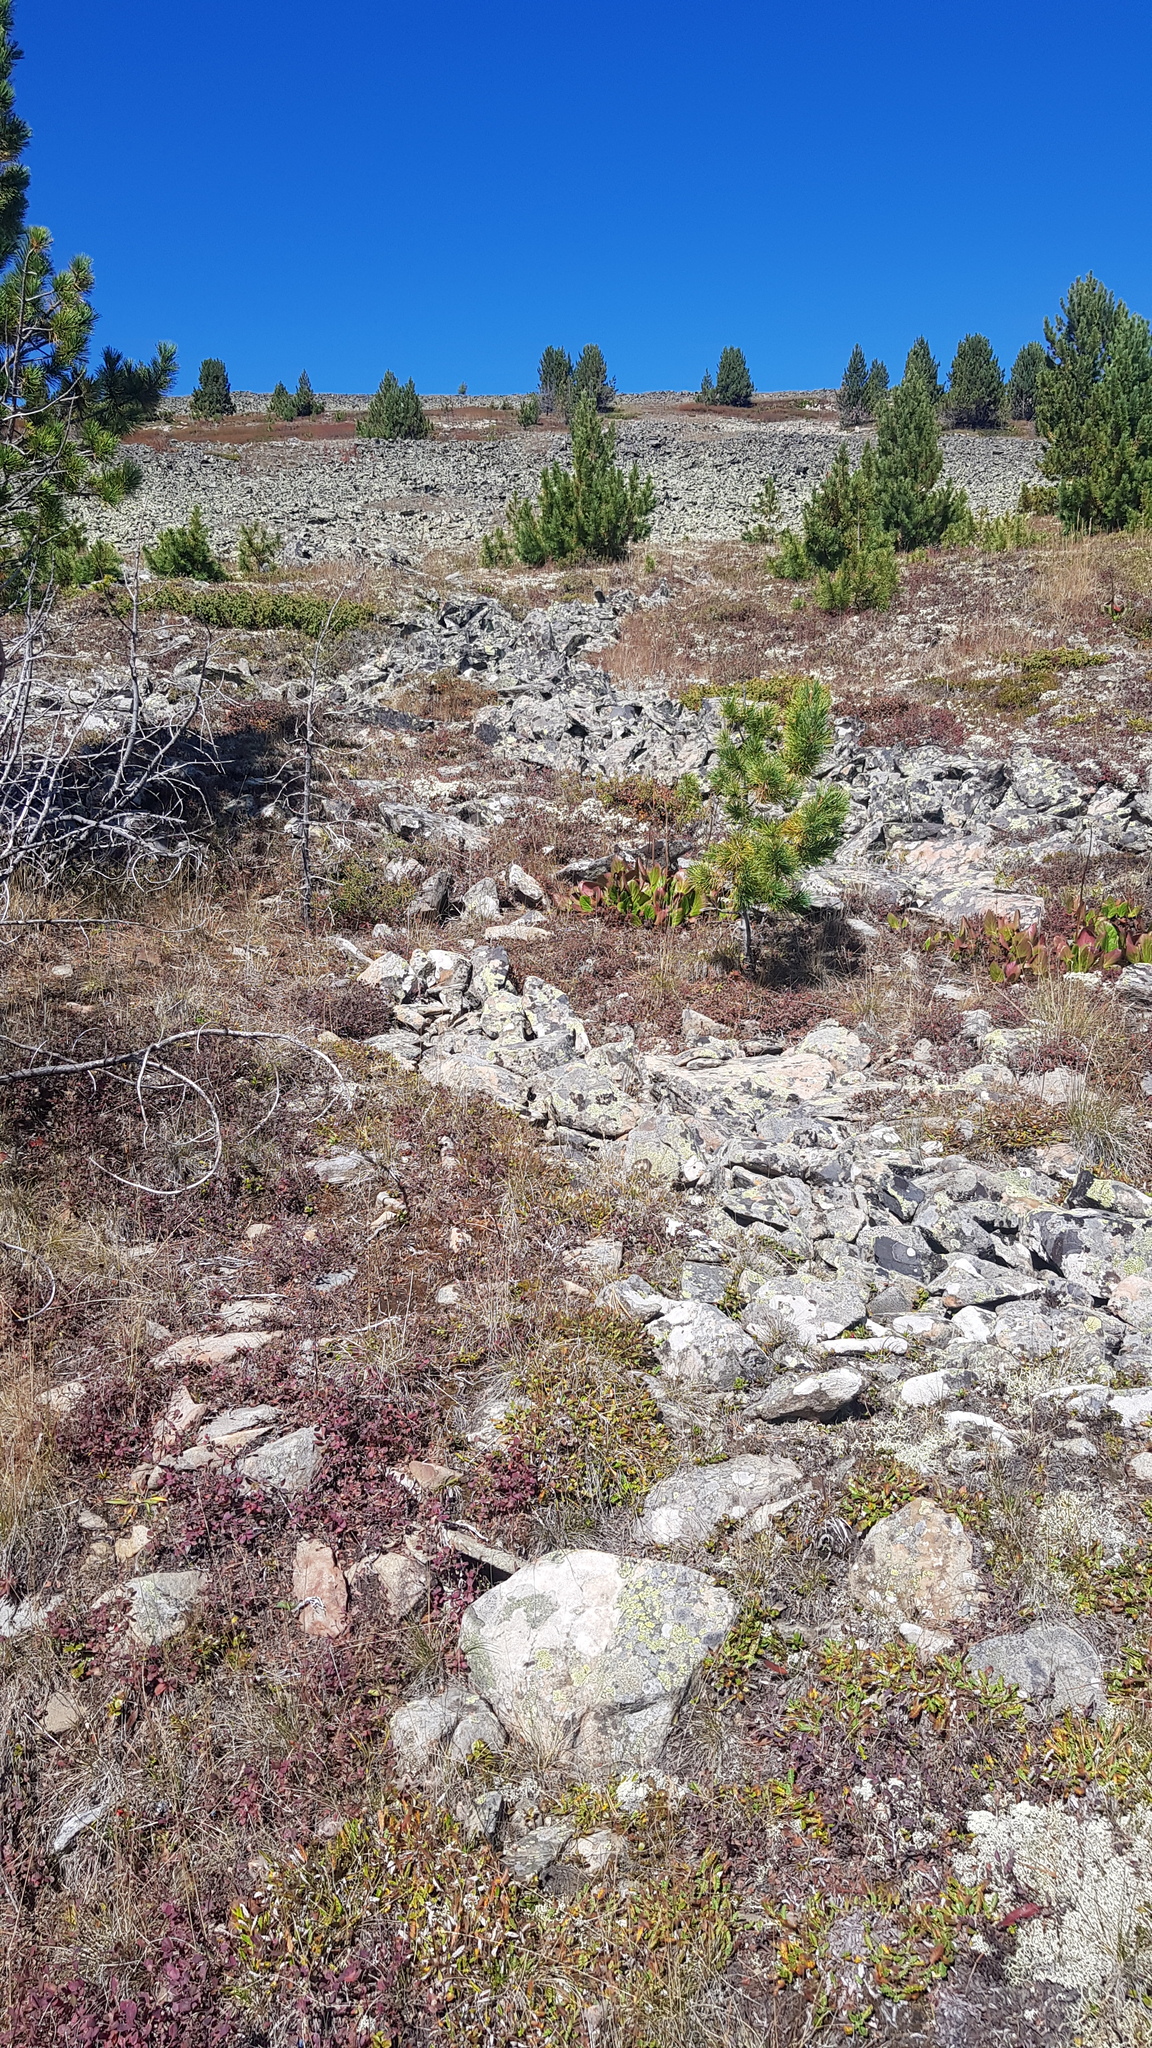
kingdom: Plantae
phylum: Tracheophyta
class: Pinopsida
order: Pinales
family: Pinaceae
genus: Pinus
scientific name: Pinus sibirica
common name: Siberian pine
